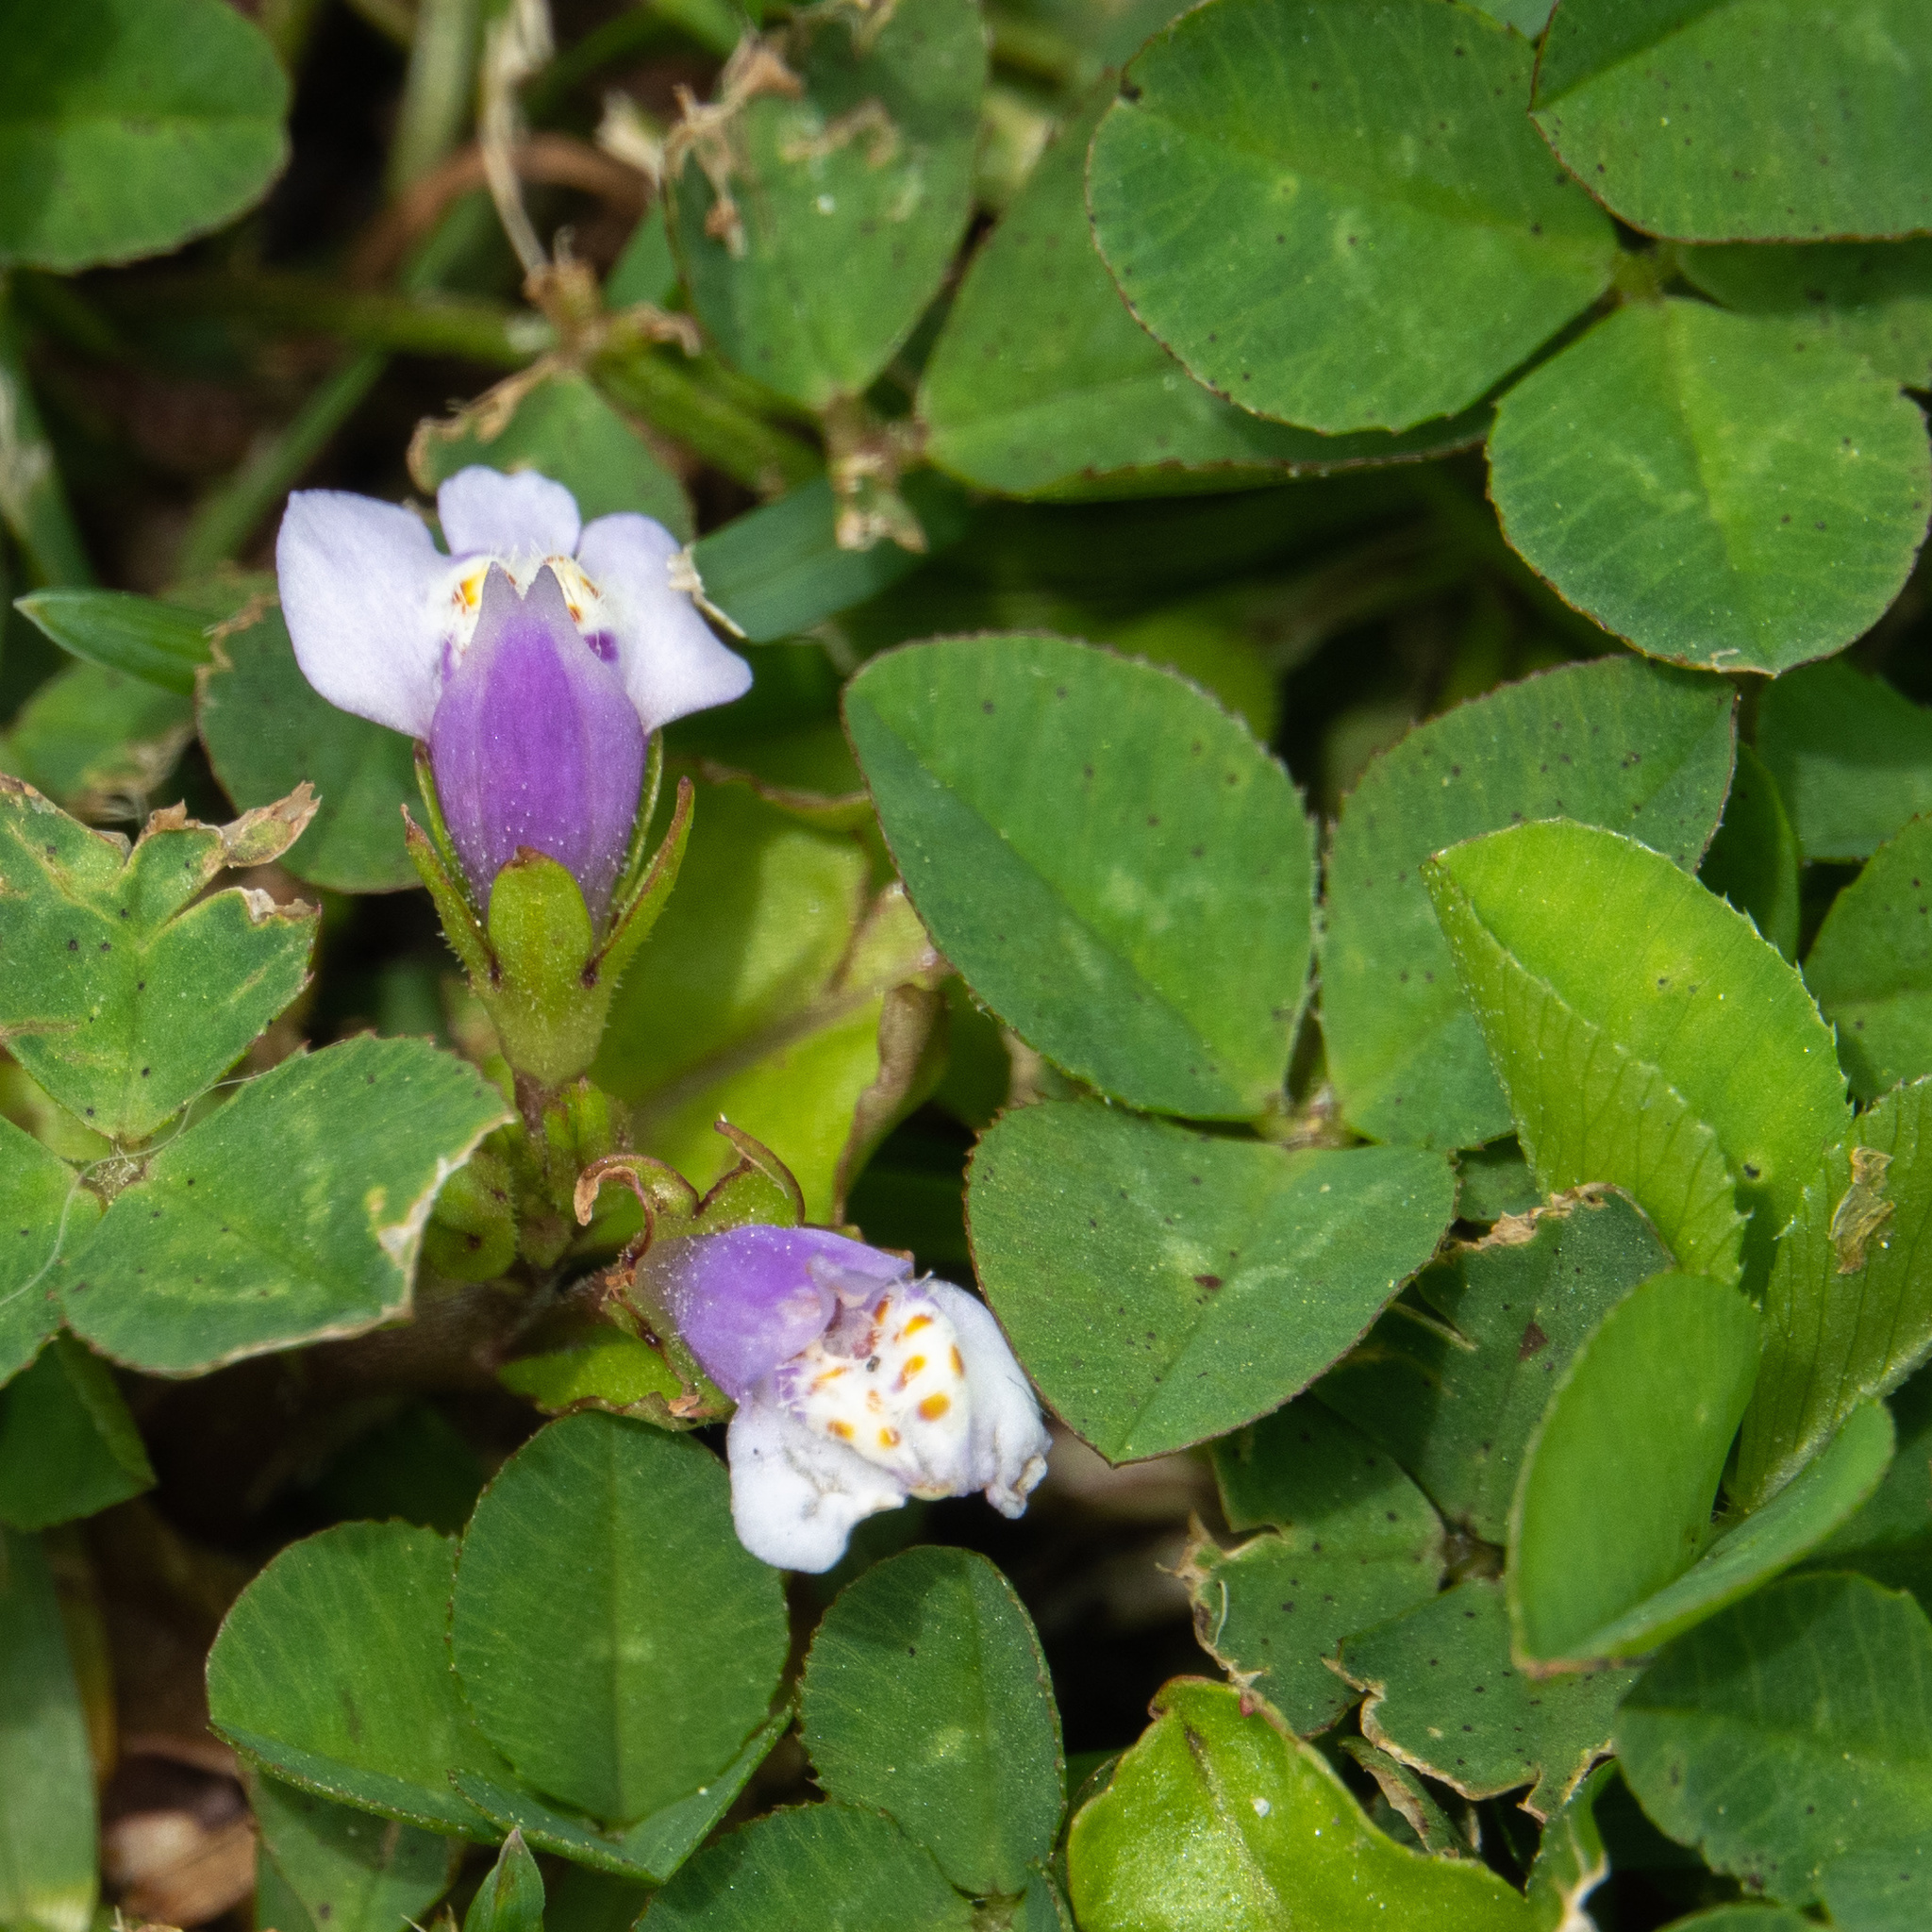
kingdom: Plantae
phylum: Tracheophyta
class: Magnoliopsida
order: Lamiales
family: Mazaceae
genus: Mazus
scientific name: Mazus pumilus
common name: Japanese mazus
